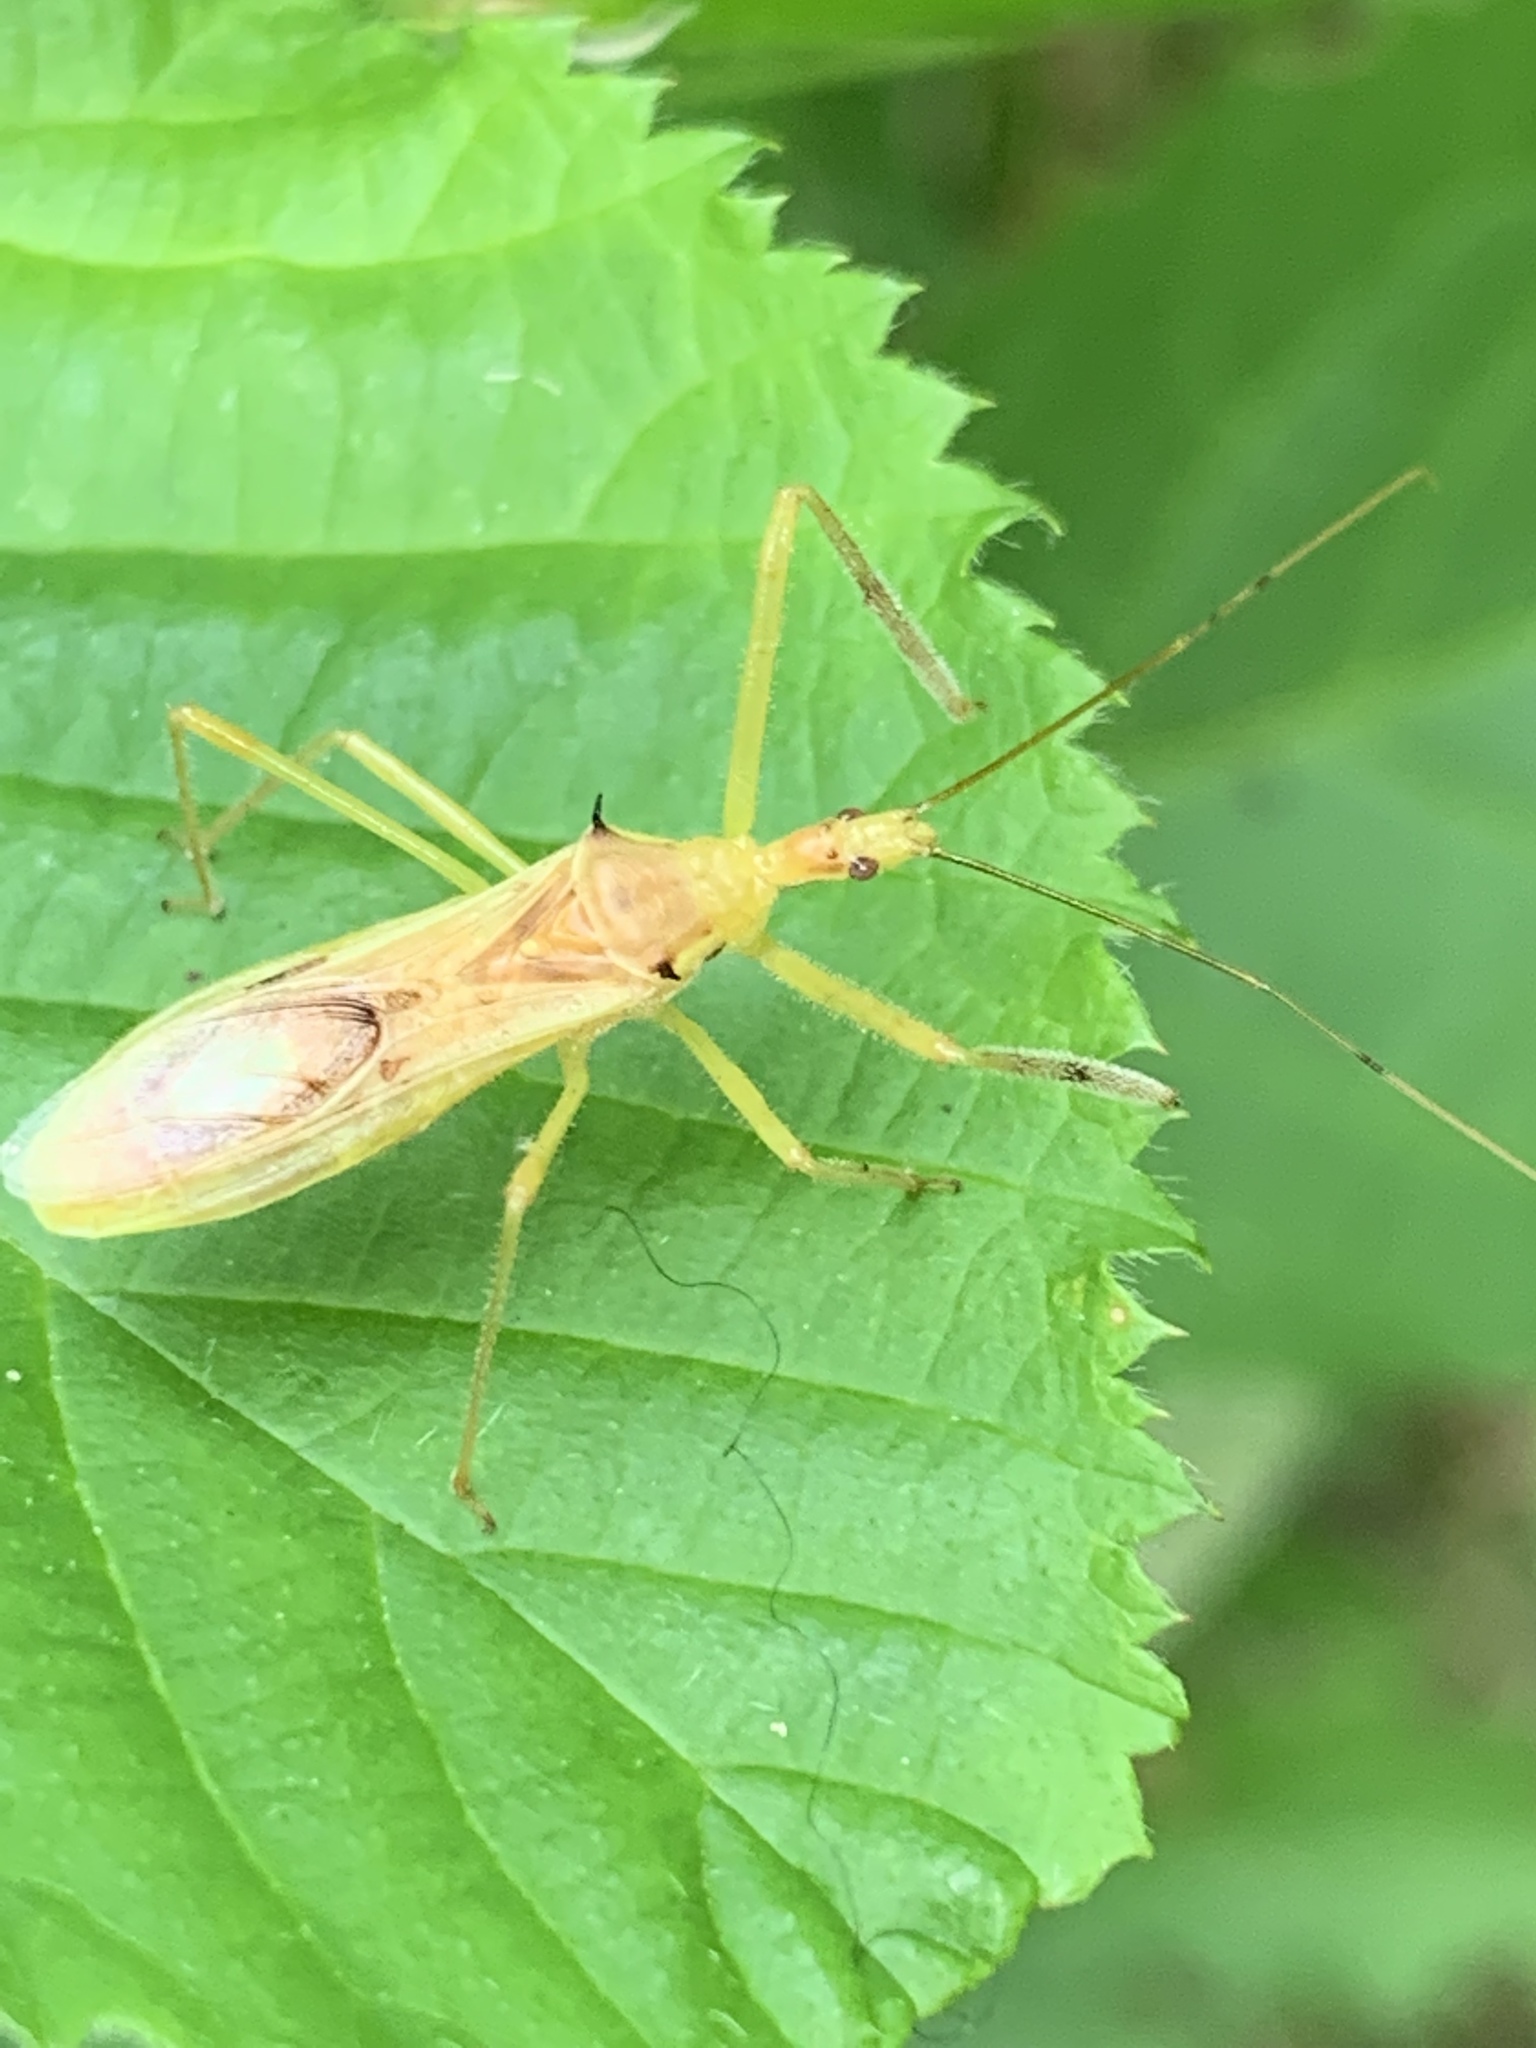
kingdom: Animalia
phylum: Arthropoda
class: Insecta
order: Hemiptera
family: Reduviidae
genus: Zelus
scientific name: Zelus luridus
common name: Pale green assassin bug
